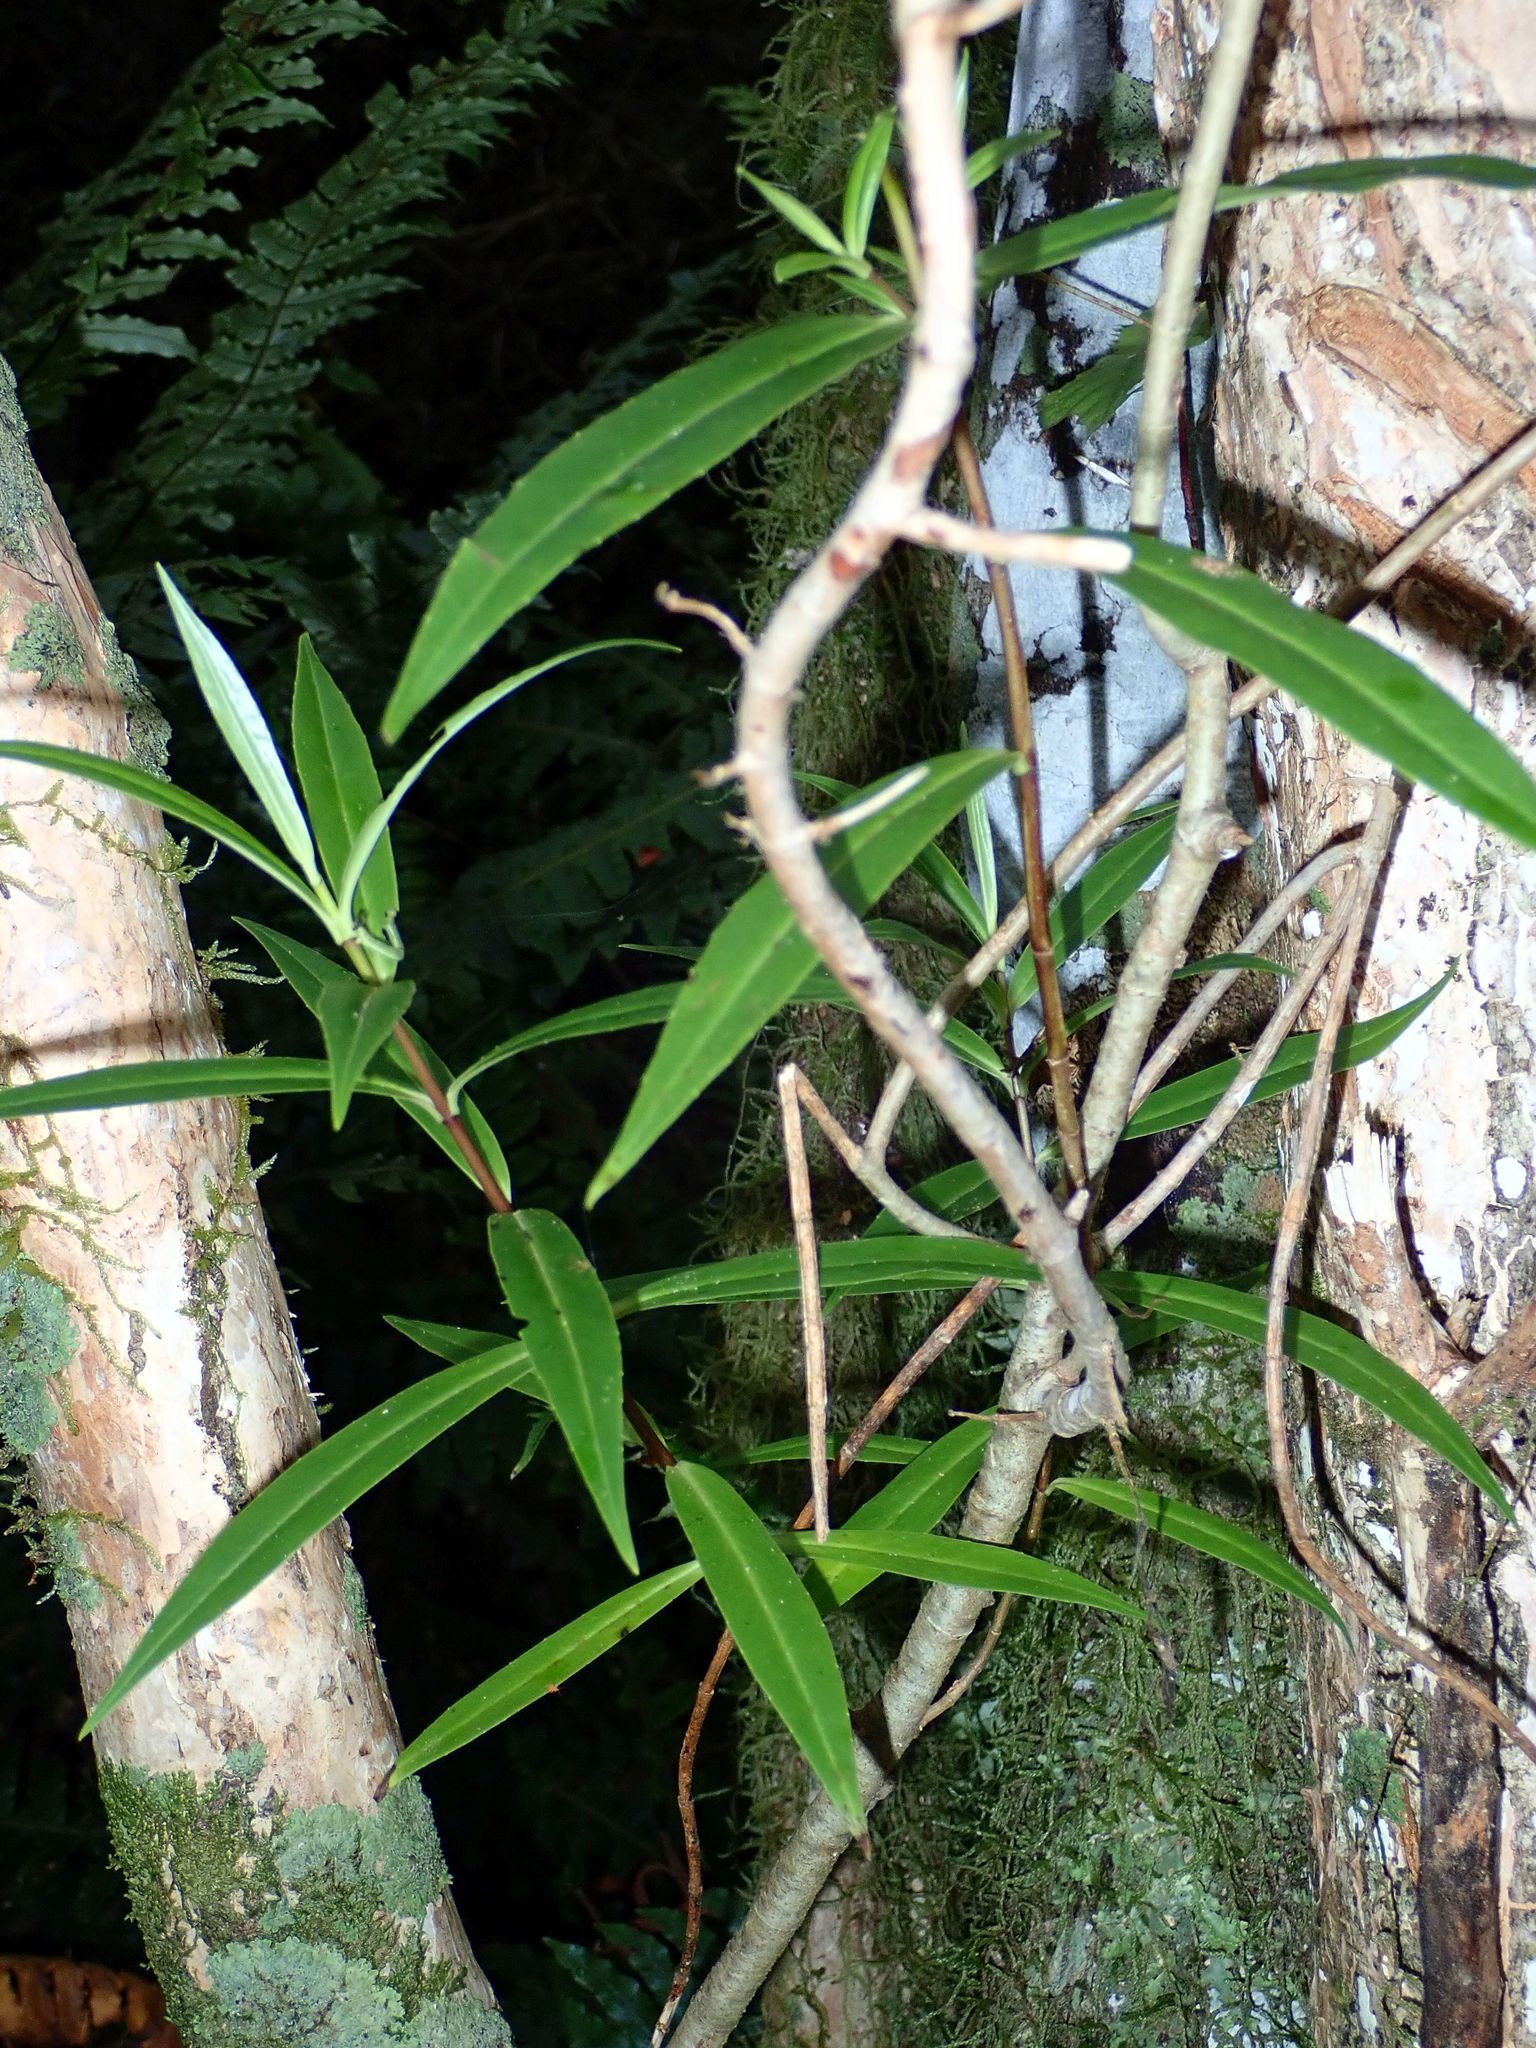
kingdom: Plantae
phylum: Tracheophyta
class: Magnoliopsida
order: Lamiales
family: Plantaginaceae
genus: Veronica
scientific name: Veronica salicifolia
